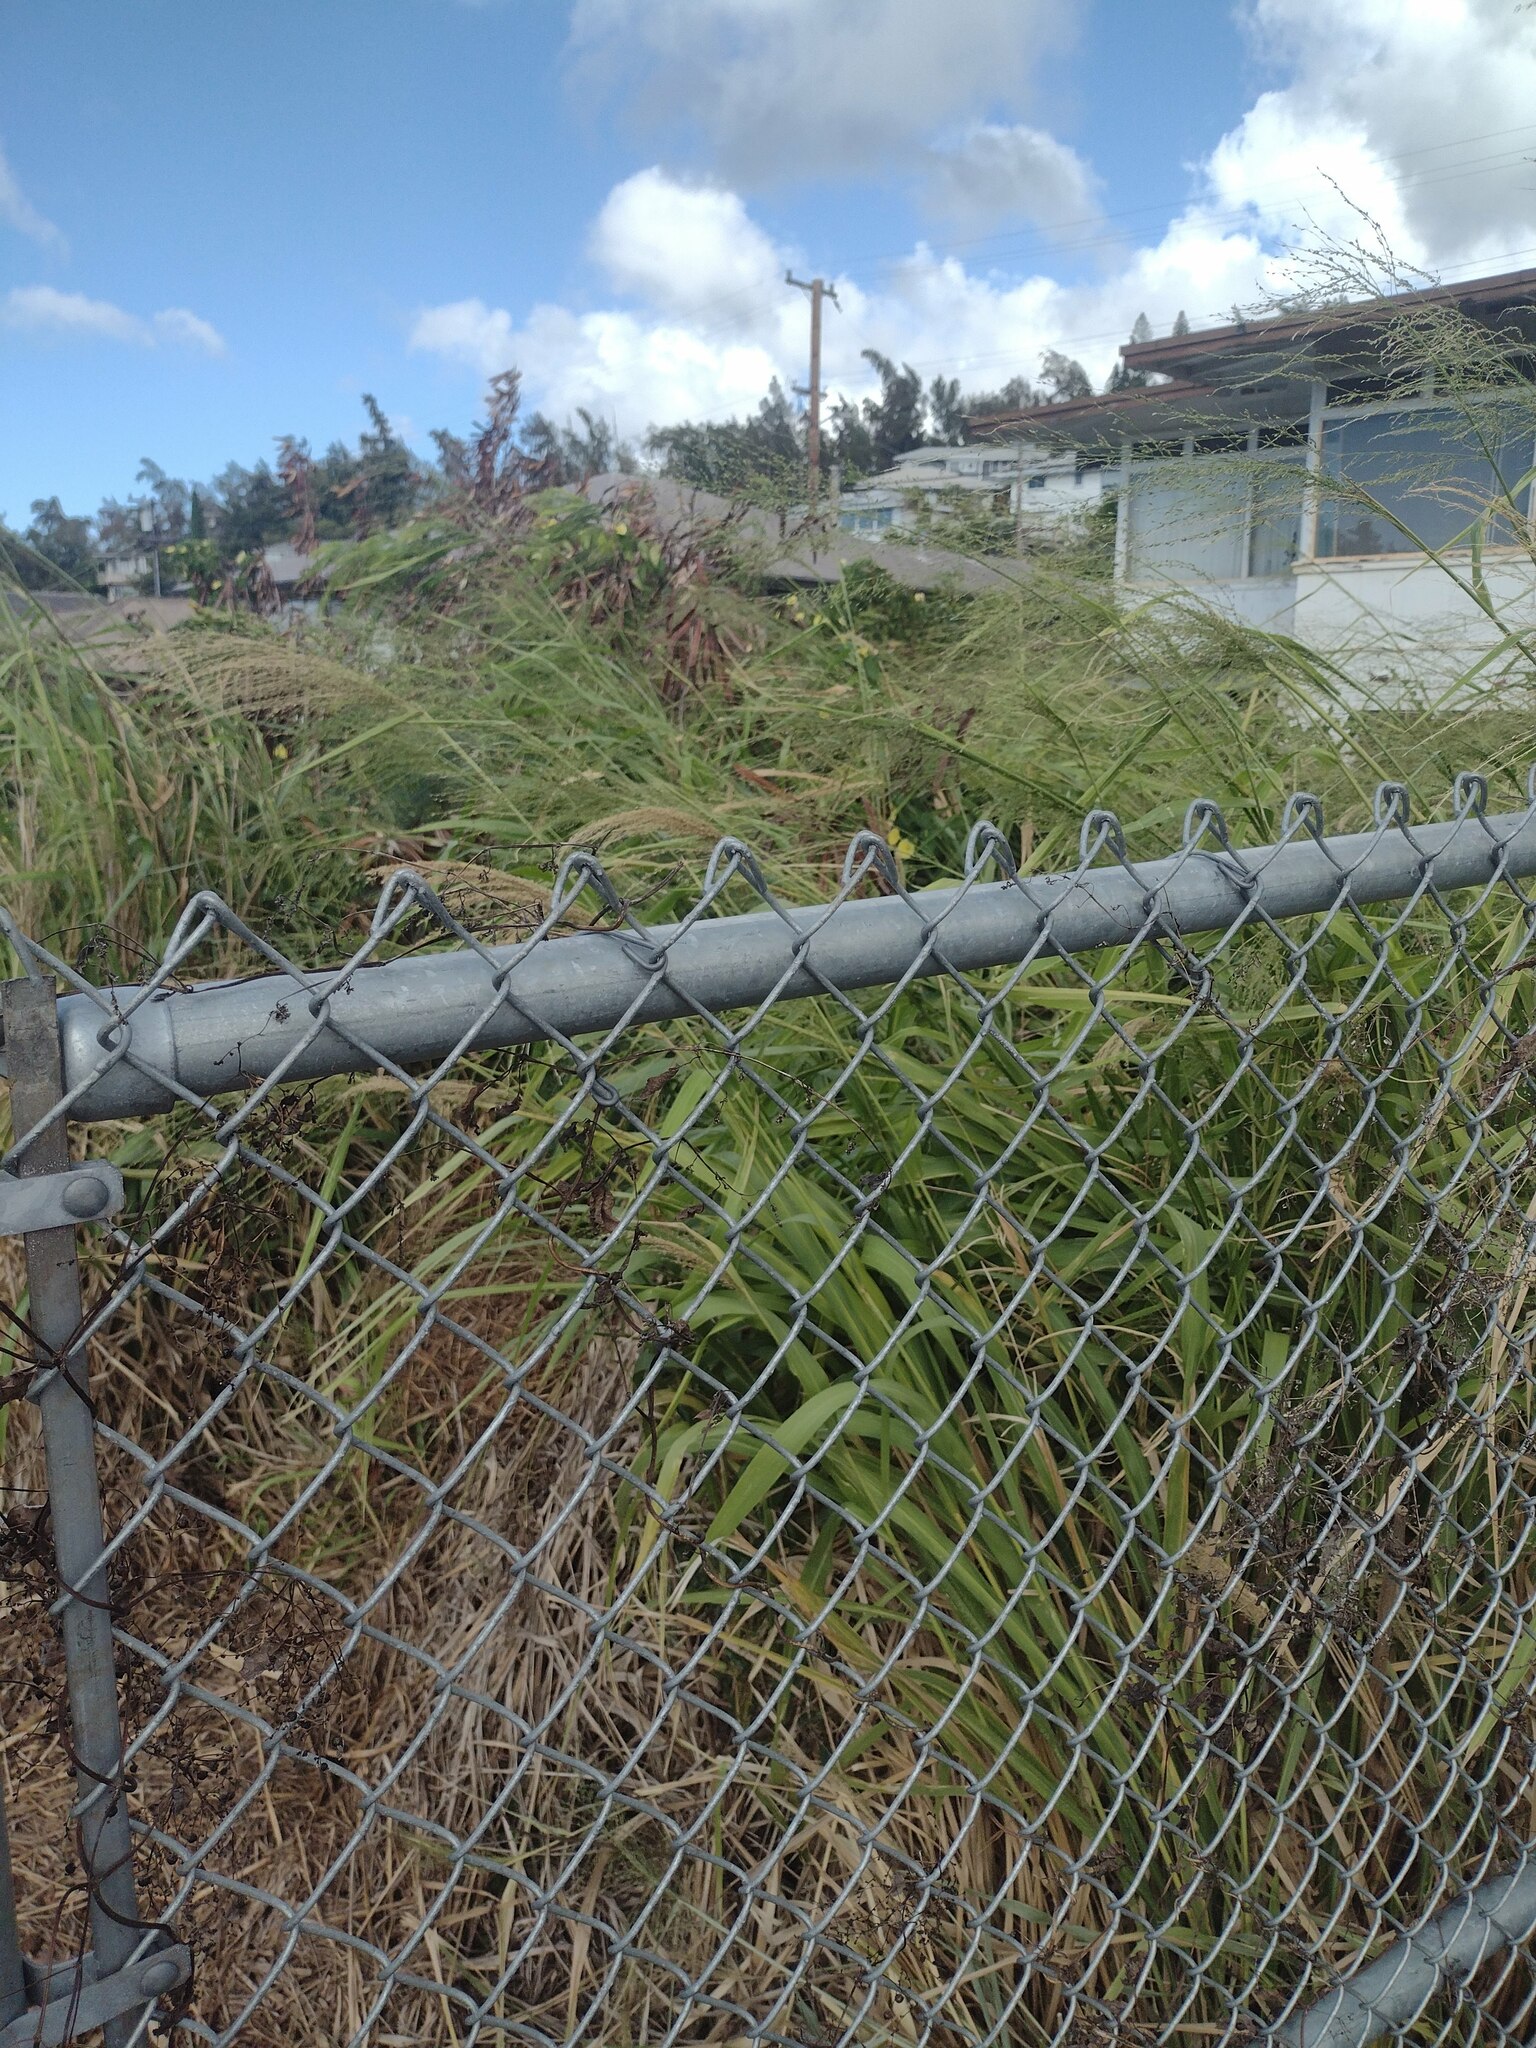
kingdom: Plantae
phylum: Tracheophyta
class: Liliopsida
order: Poales
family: Poaceae
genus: Megathyrsus
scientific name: Megathyrsus maximus
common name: Guineagrass
